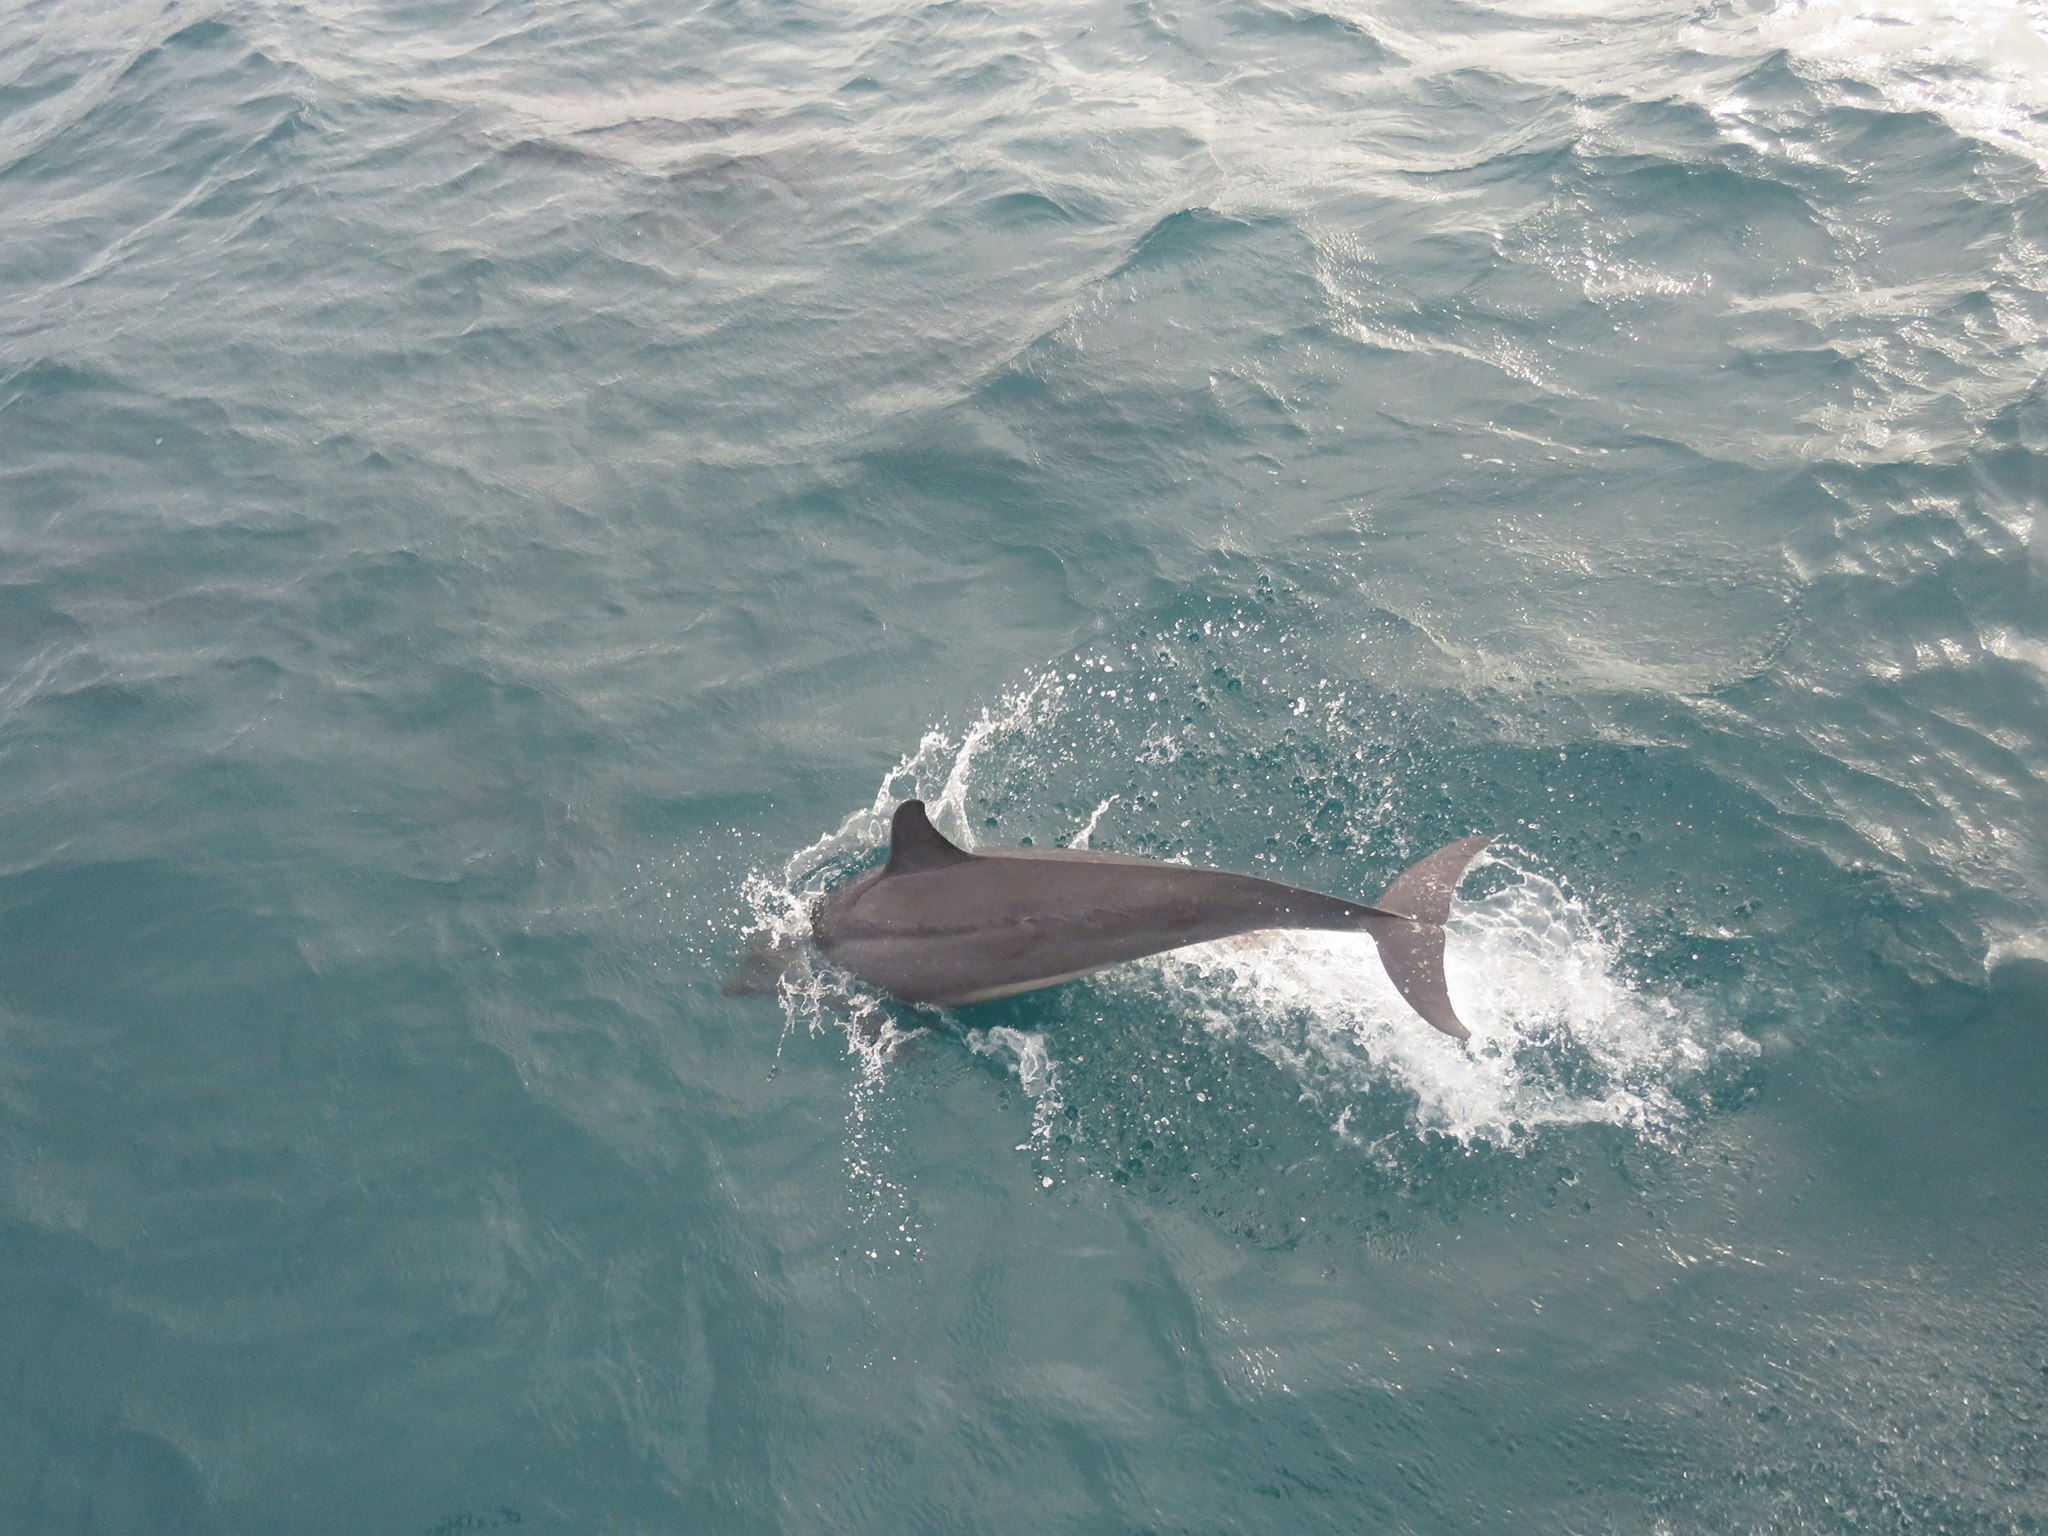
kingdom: Animalia
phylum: Chordata
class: Mammalia
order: Cetacea
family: Delphinidae
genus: Stenella
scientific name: Stenella longirostris
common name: Spinner dolphin
